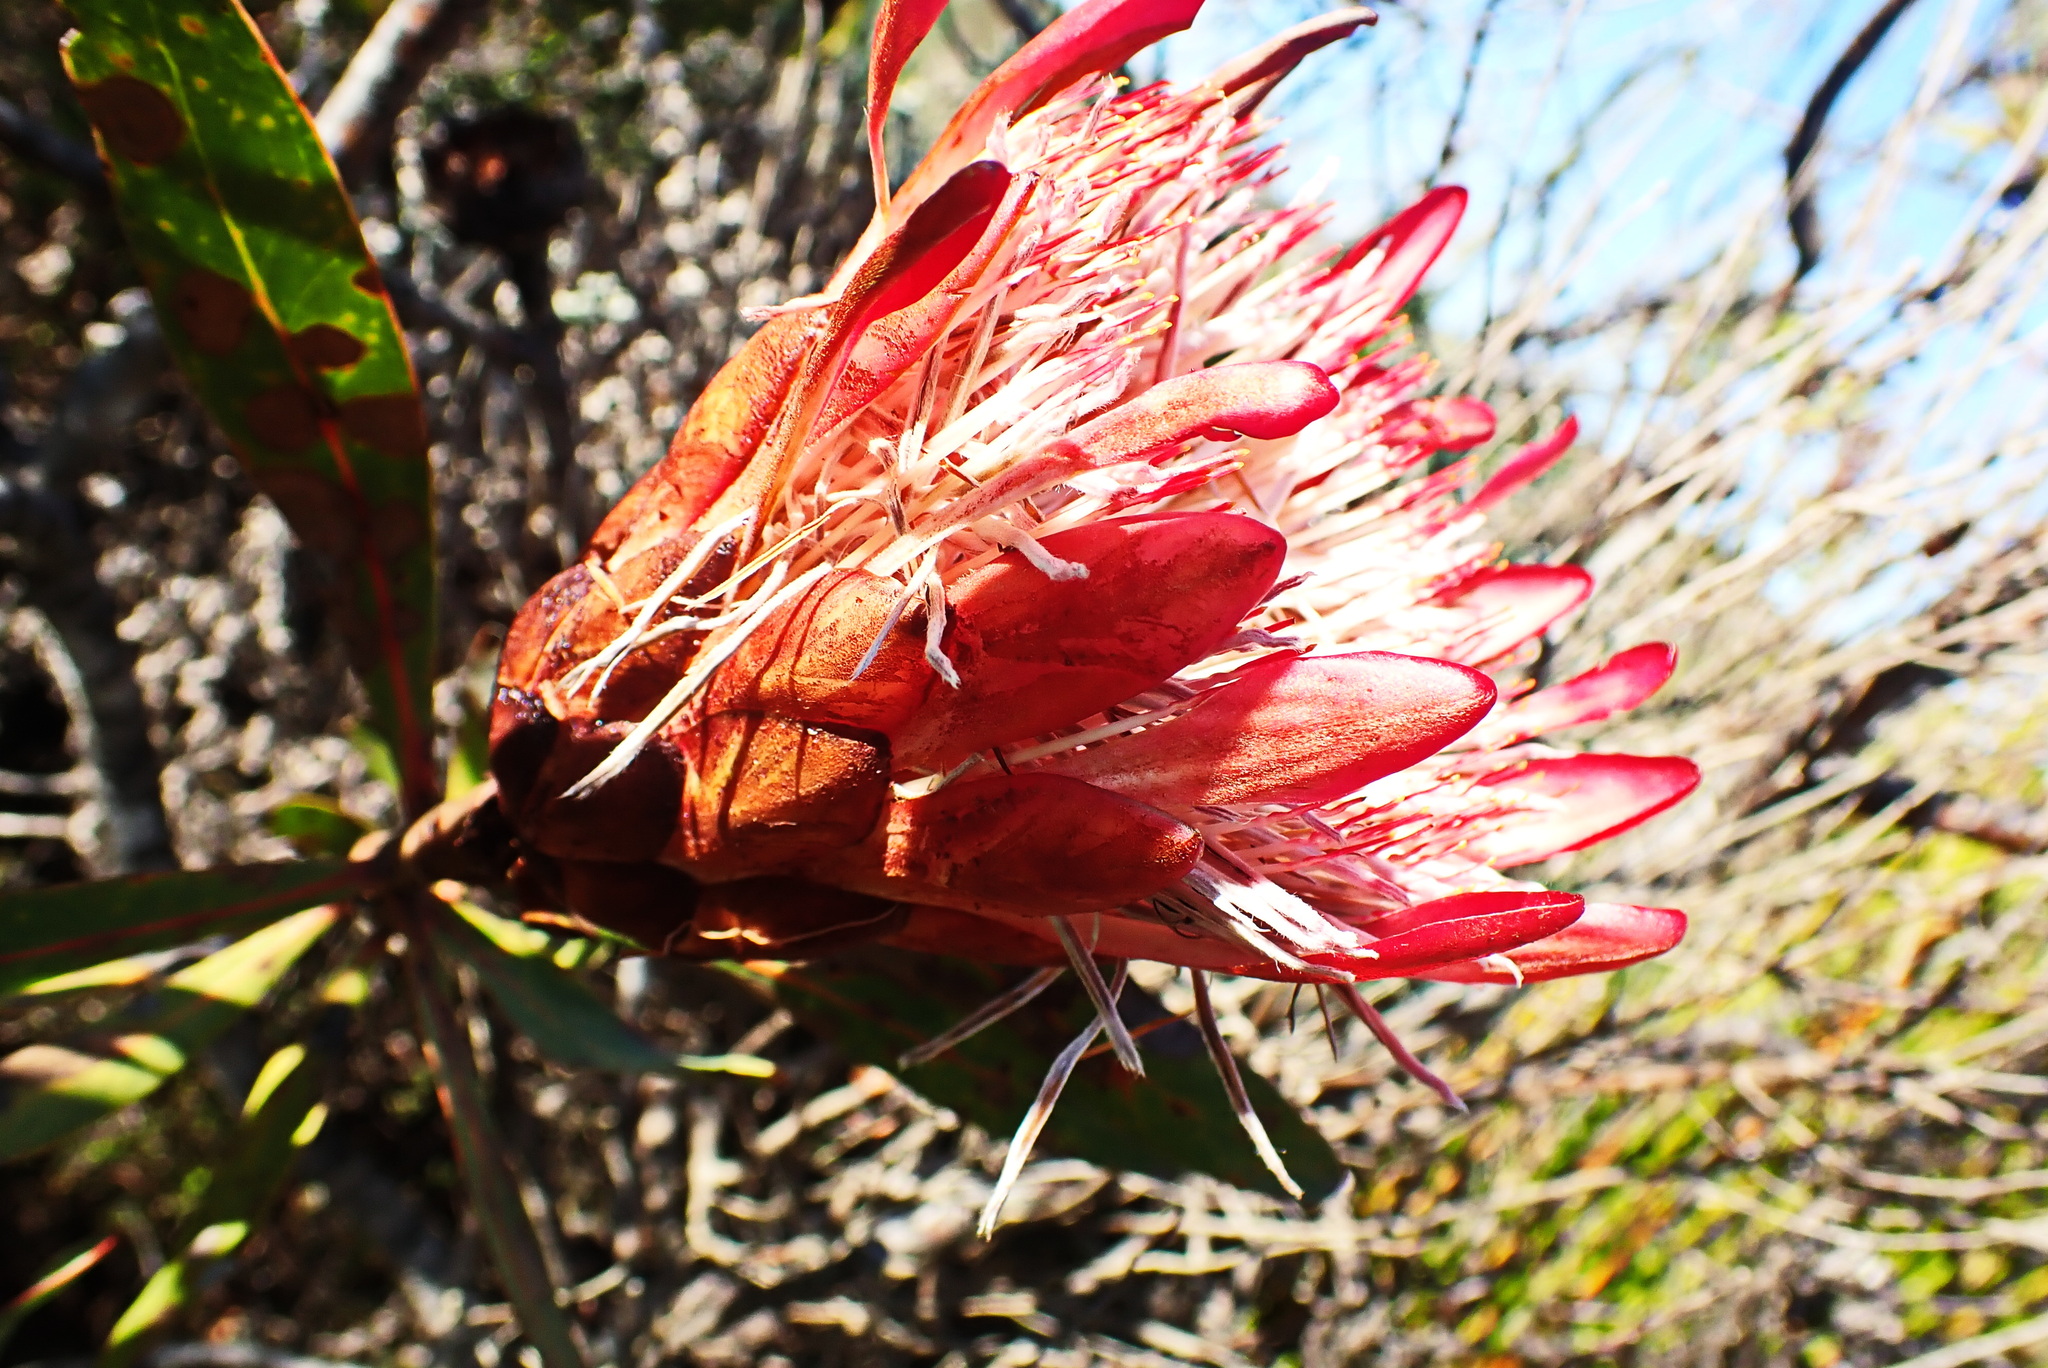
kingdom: Plantae
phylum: Tracheophyta
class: Magnoliopsida
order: Proteales
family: Proteaceae
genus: Protea
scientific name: Protea susannae
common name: Foetid-leaf sugarbush
